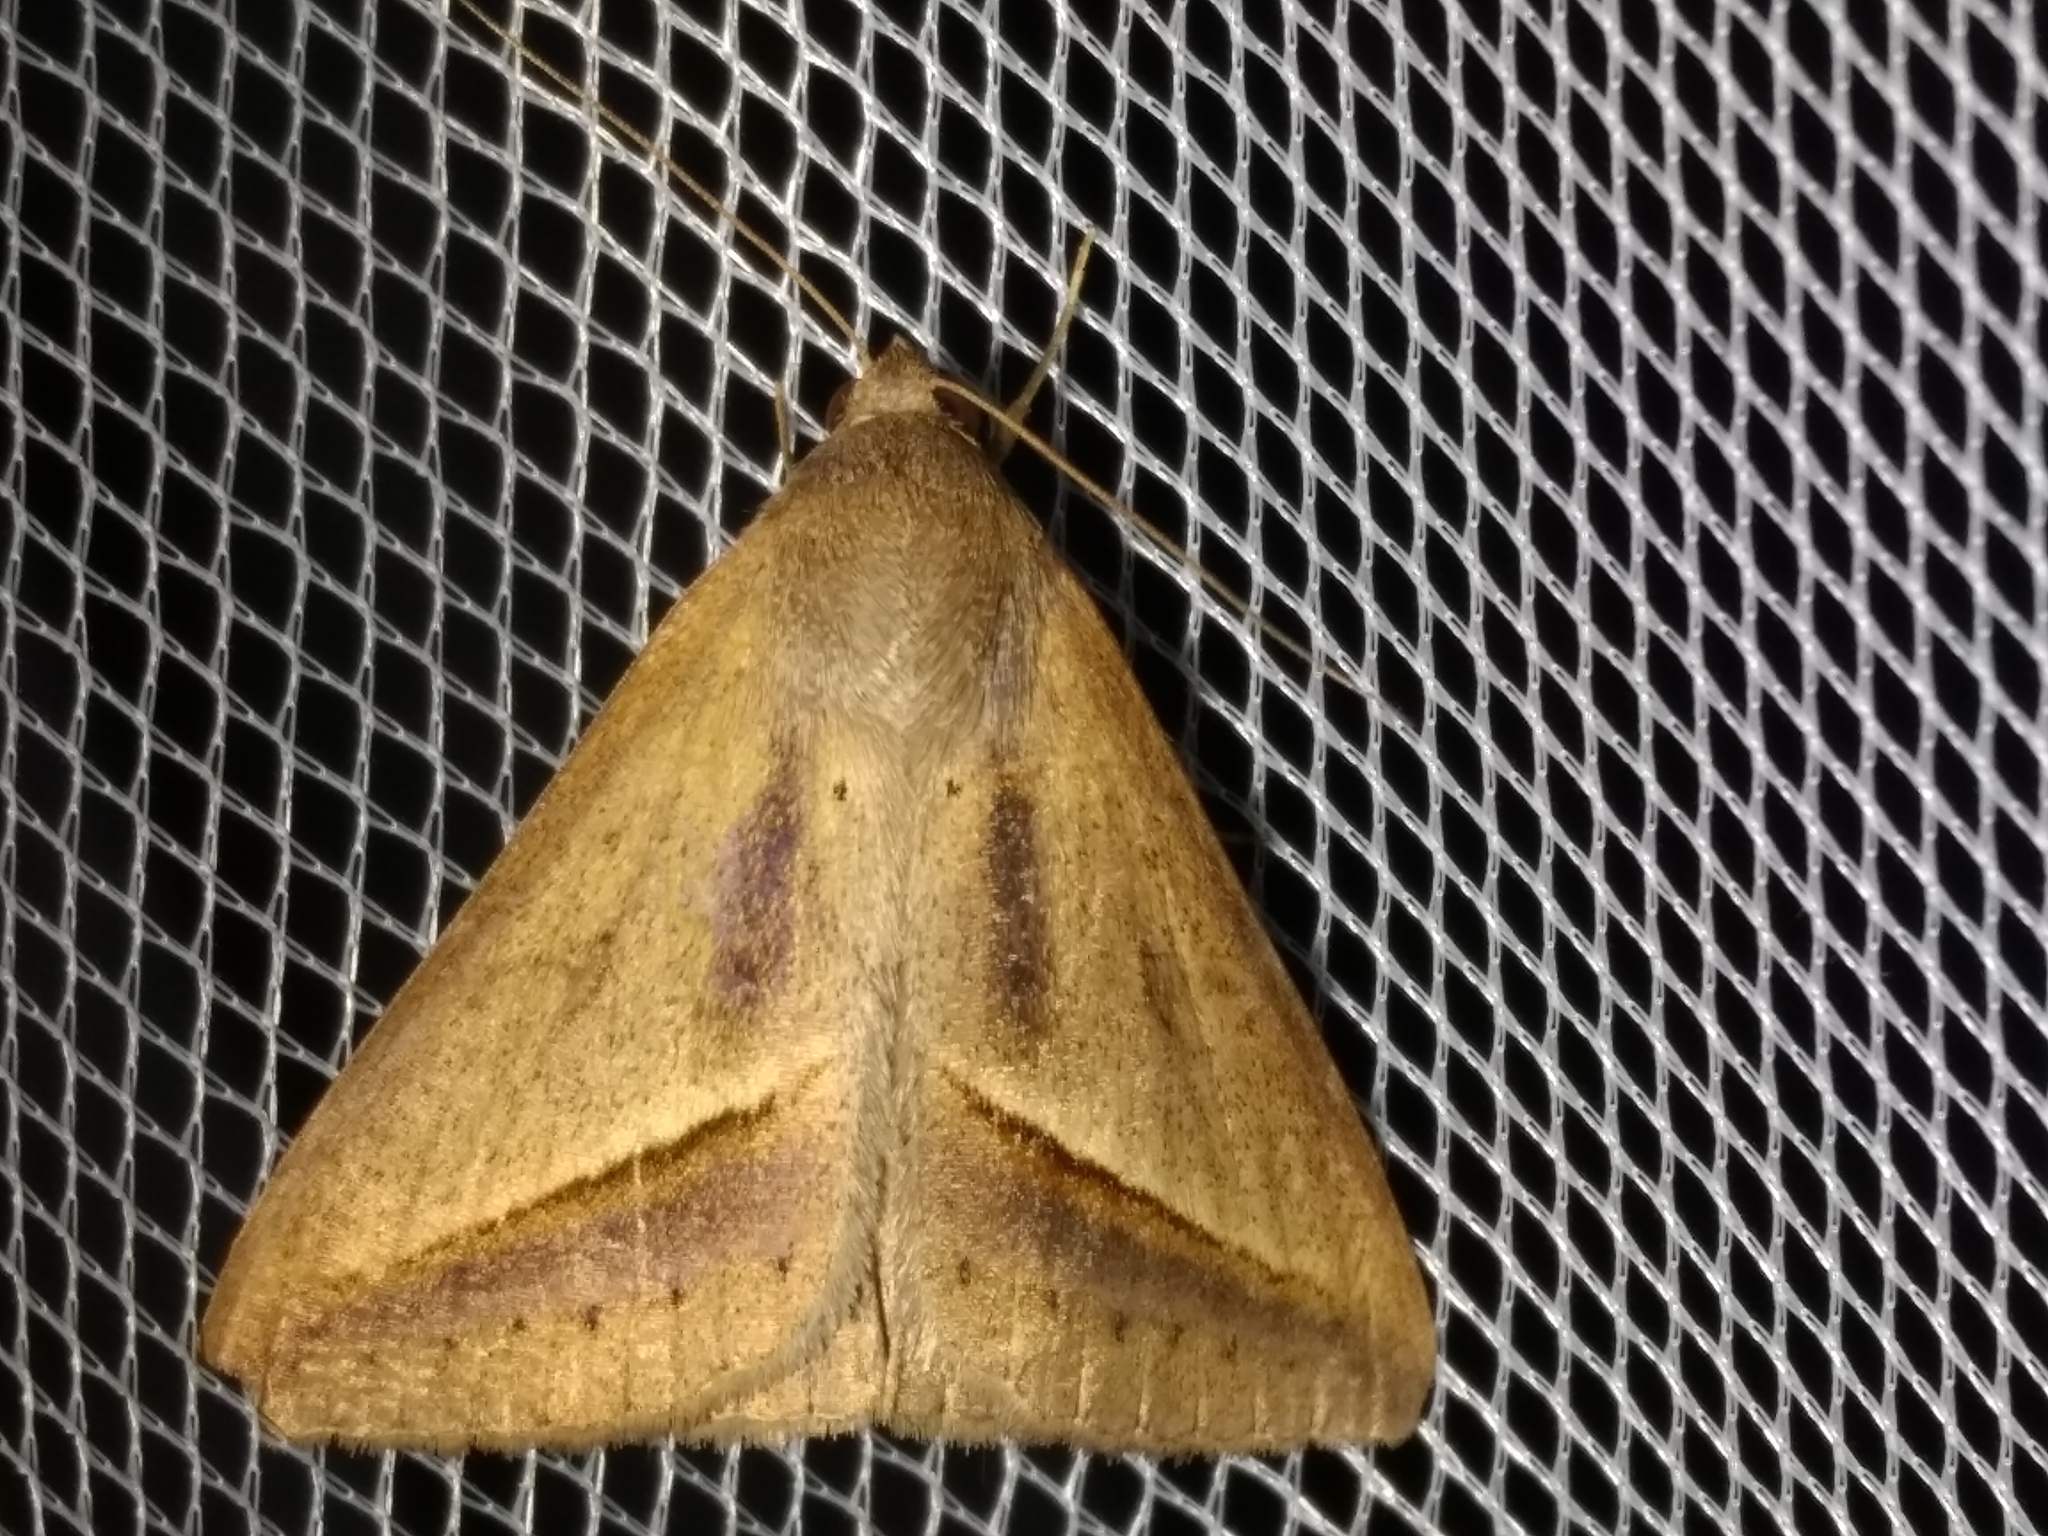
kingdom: Animalia
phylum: Arthropoda
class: Insecta
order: Lepidoptera
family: Erebidae
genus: Mocis
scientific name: Mocis frugalis
